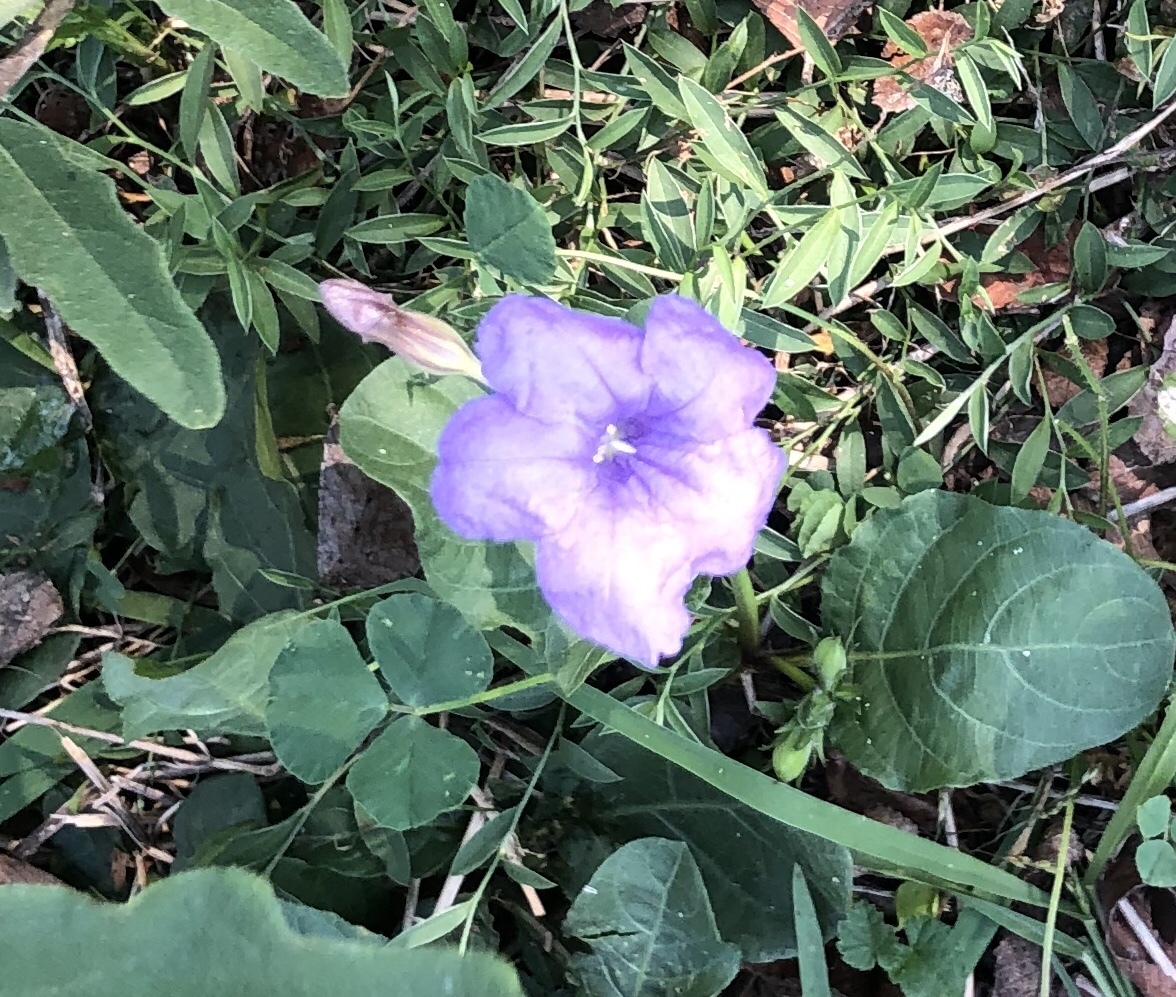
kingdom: Plantae
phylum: Tracheophyta
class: Magnoliopsida
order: Lamiales
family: Acanthaceae
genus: Ruellia
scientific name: Ruellia ciliatiflora
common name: Hairyflower wild petunia
